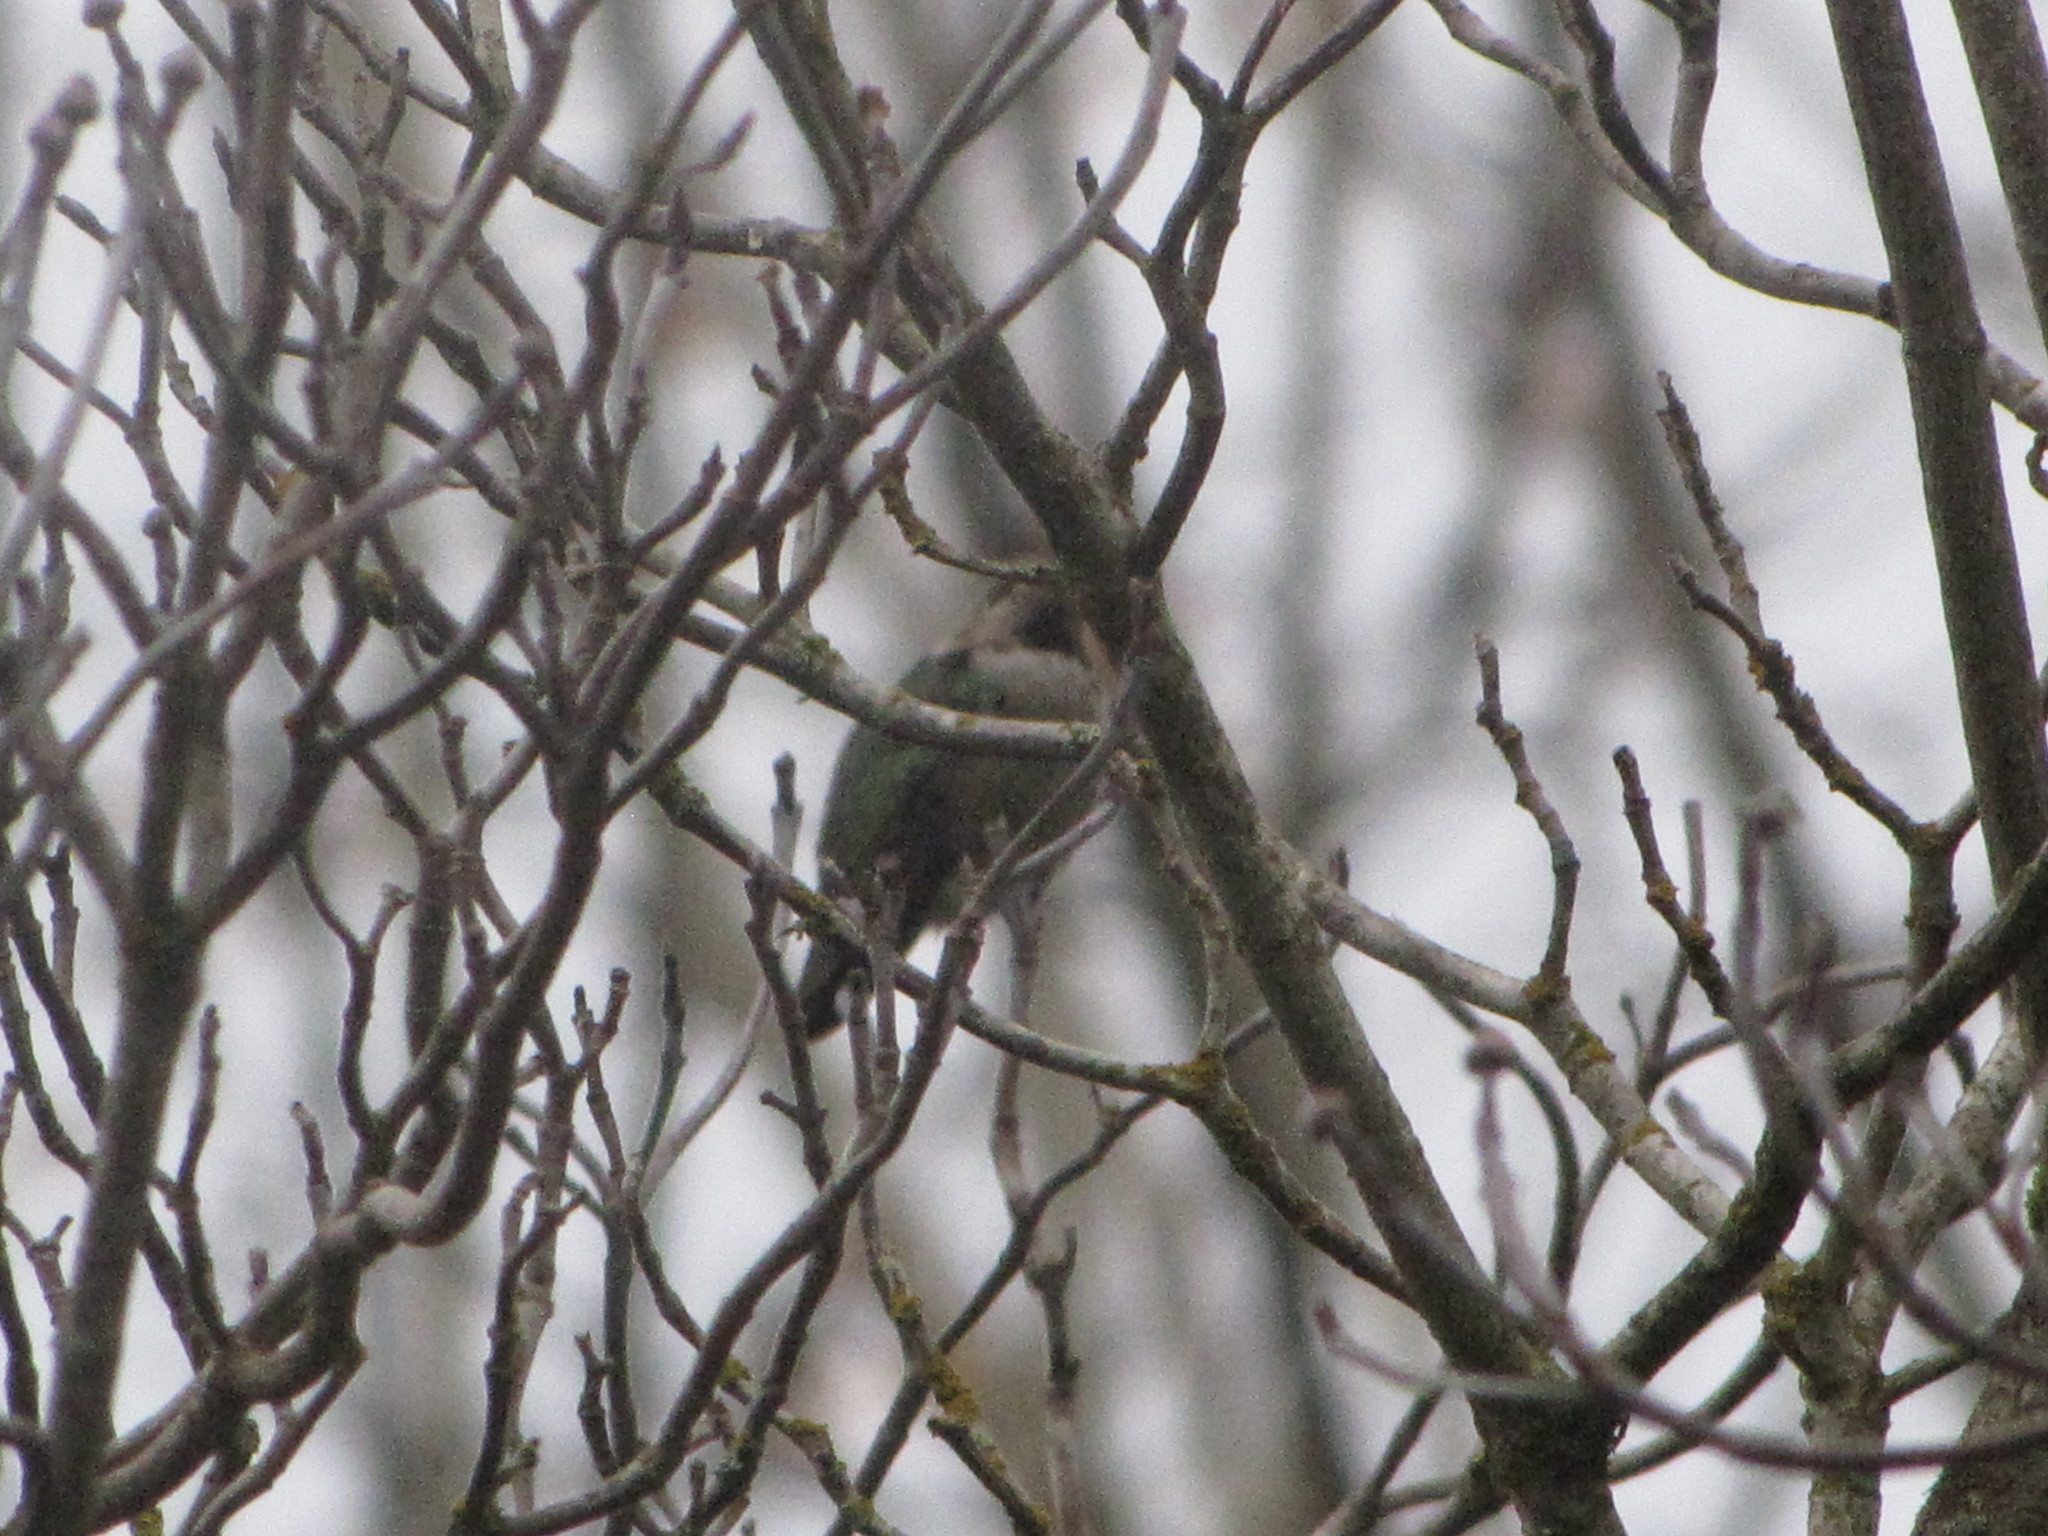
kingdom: Animalia
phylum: Chordata
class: Aves
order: Apodiformes
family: Trochilidae
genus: Calypte
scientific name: Calypte anna
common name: Anna's hummingbird
